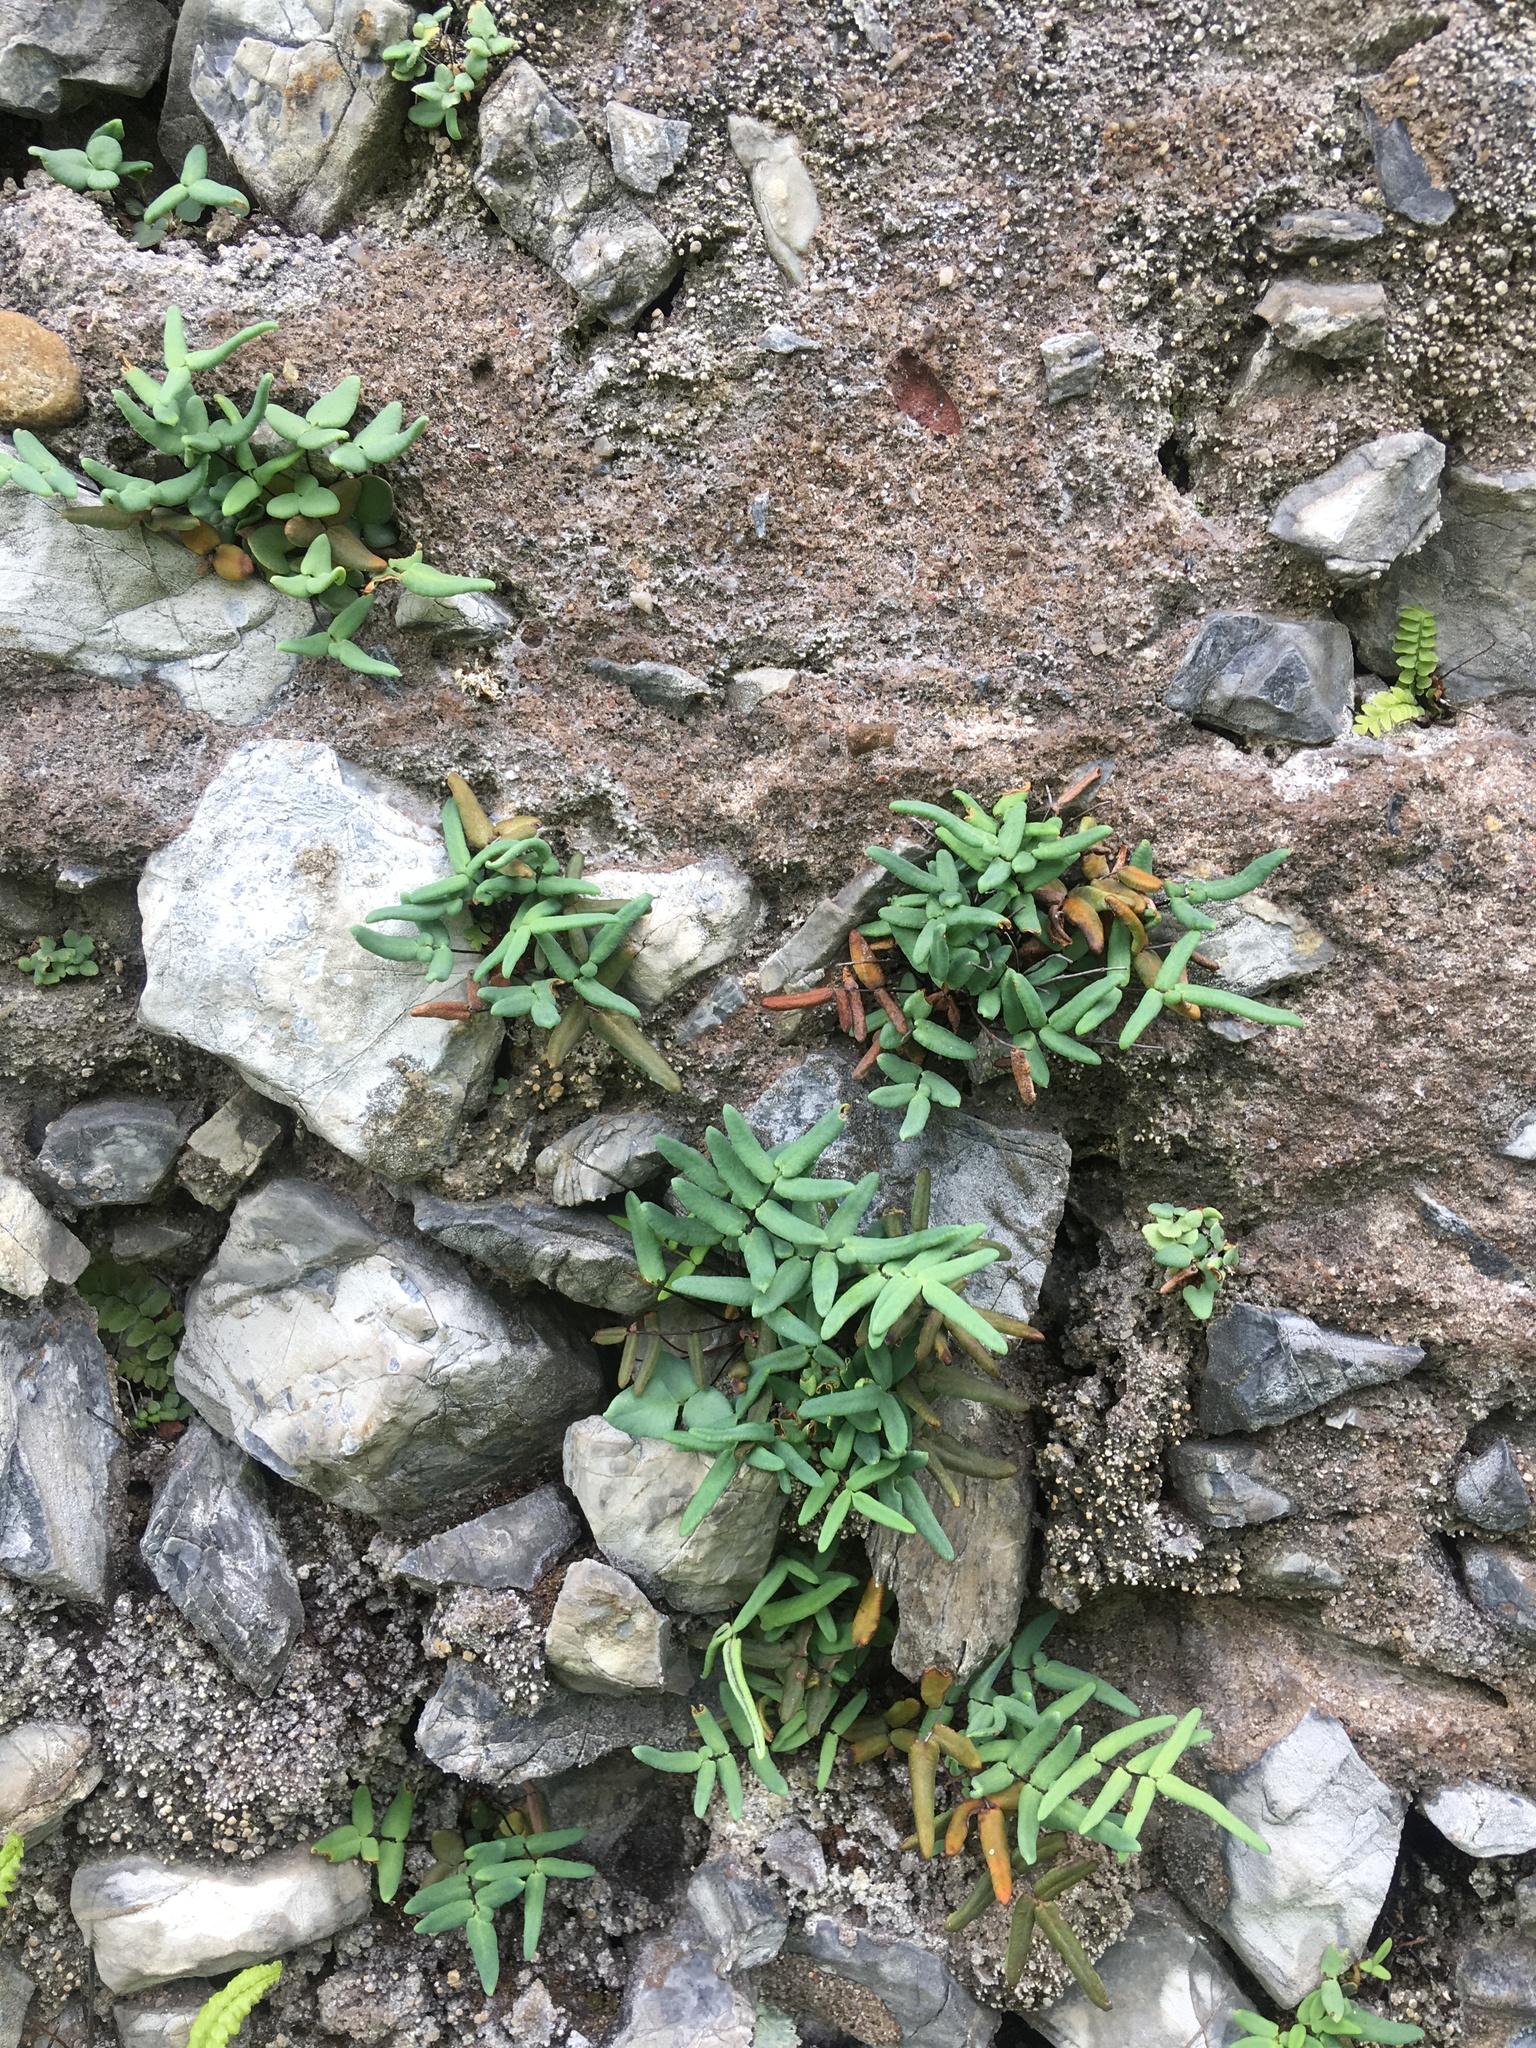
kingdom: Plantae
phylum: Tracheophyta
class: Polypodiopsida
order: Polypodiales
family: Pteridaceae
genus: Pellaea
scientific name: Pellaea glabella
